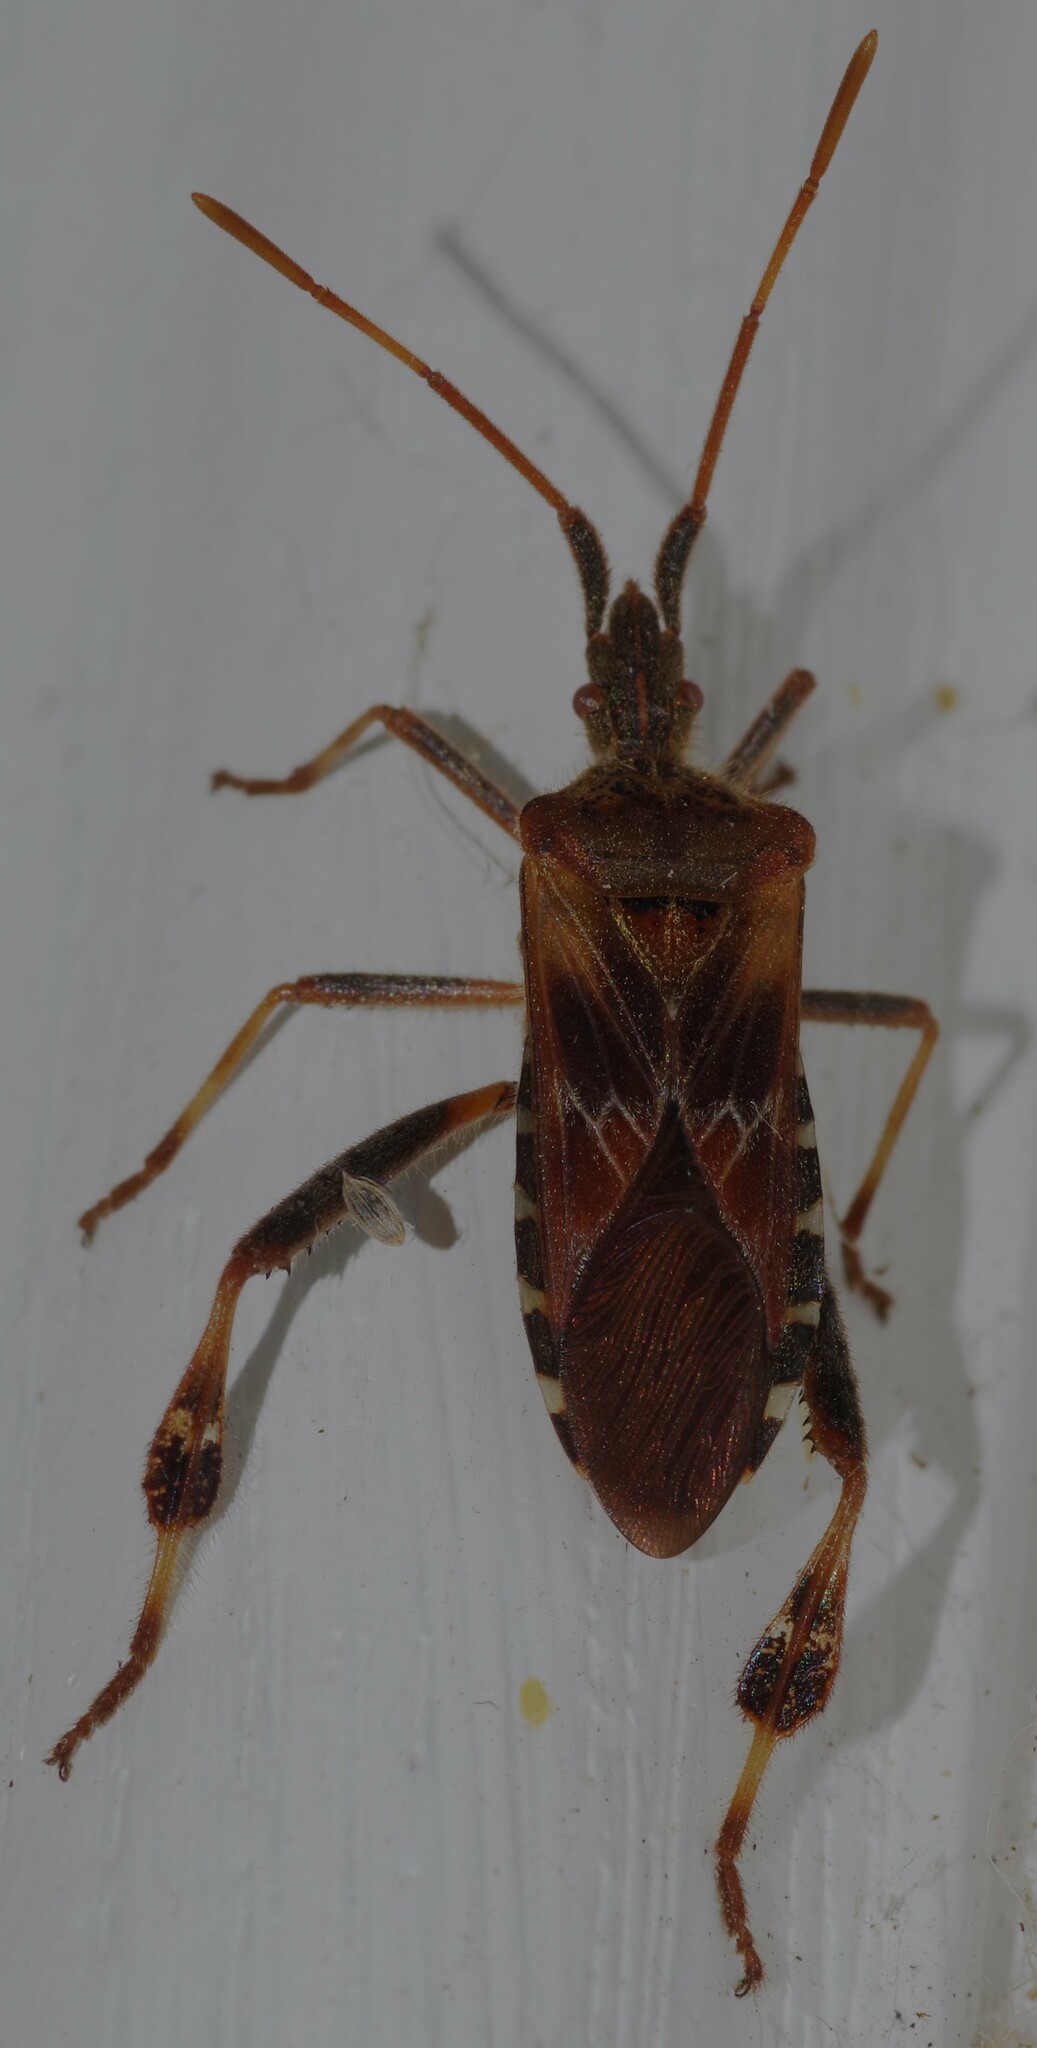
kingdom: Animalia
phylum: Arthropoda
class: Insecta
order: Hemiptera
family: Coreidae
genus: Leptoglossus
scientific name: Leptoglossus occidentalis
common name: Western conifer-seed bug
